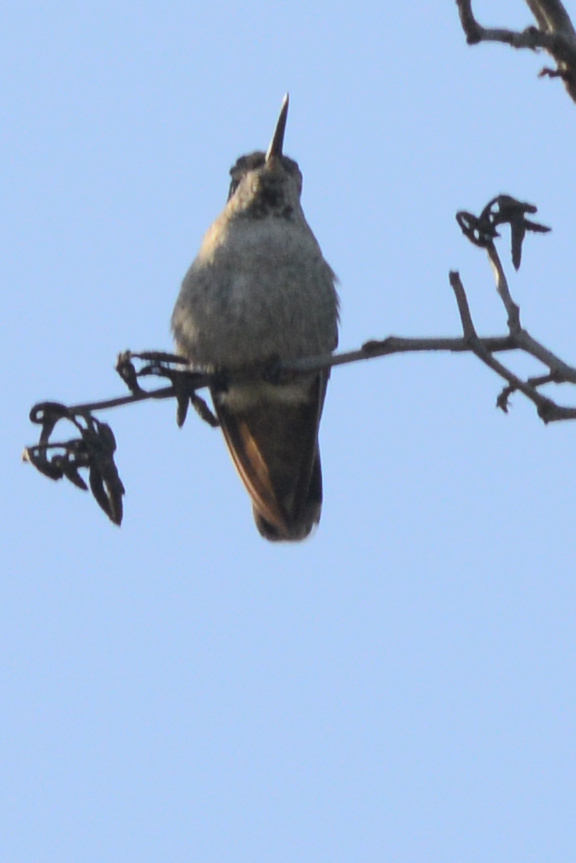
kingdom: Animalia
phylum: Chordata
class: Aves
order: Apodiformes
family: Trochilidae
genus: Calypte
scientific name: Calypte anna
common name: Anna's hummingbird
